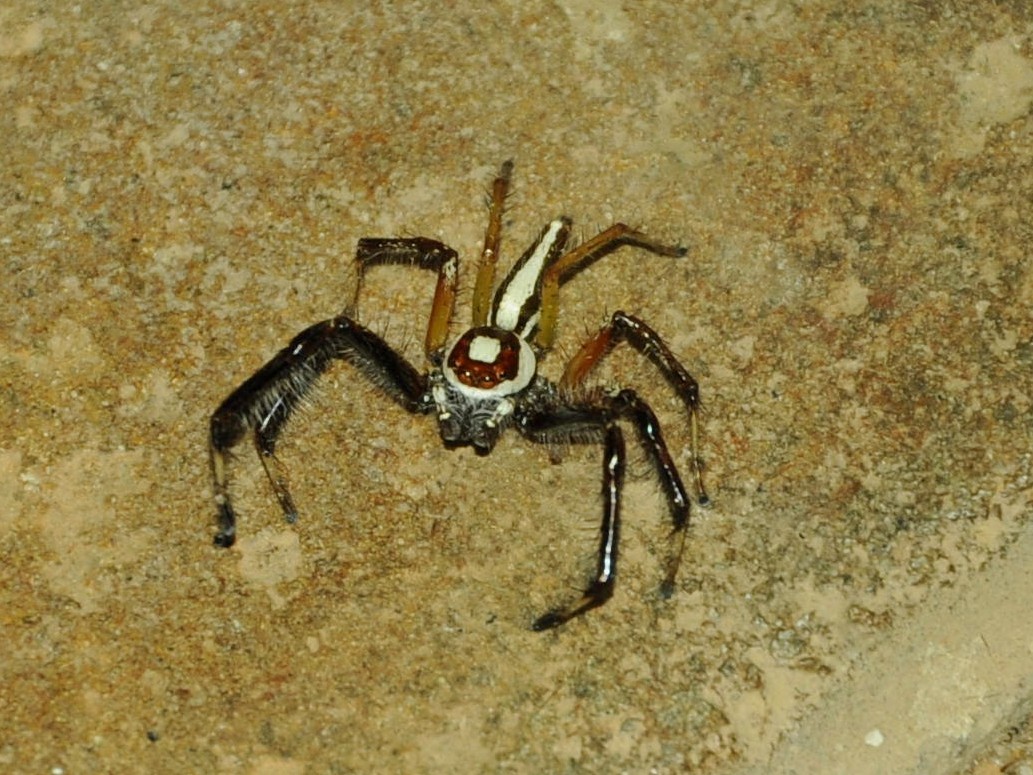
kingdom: Animalia
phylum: Arthropoda
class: Arachnida
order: Araneae
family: Salticidae
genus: Telamonia
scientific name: Telamonia dimidiata
